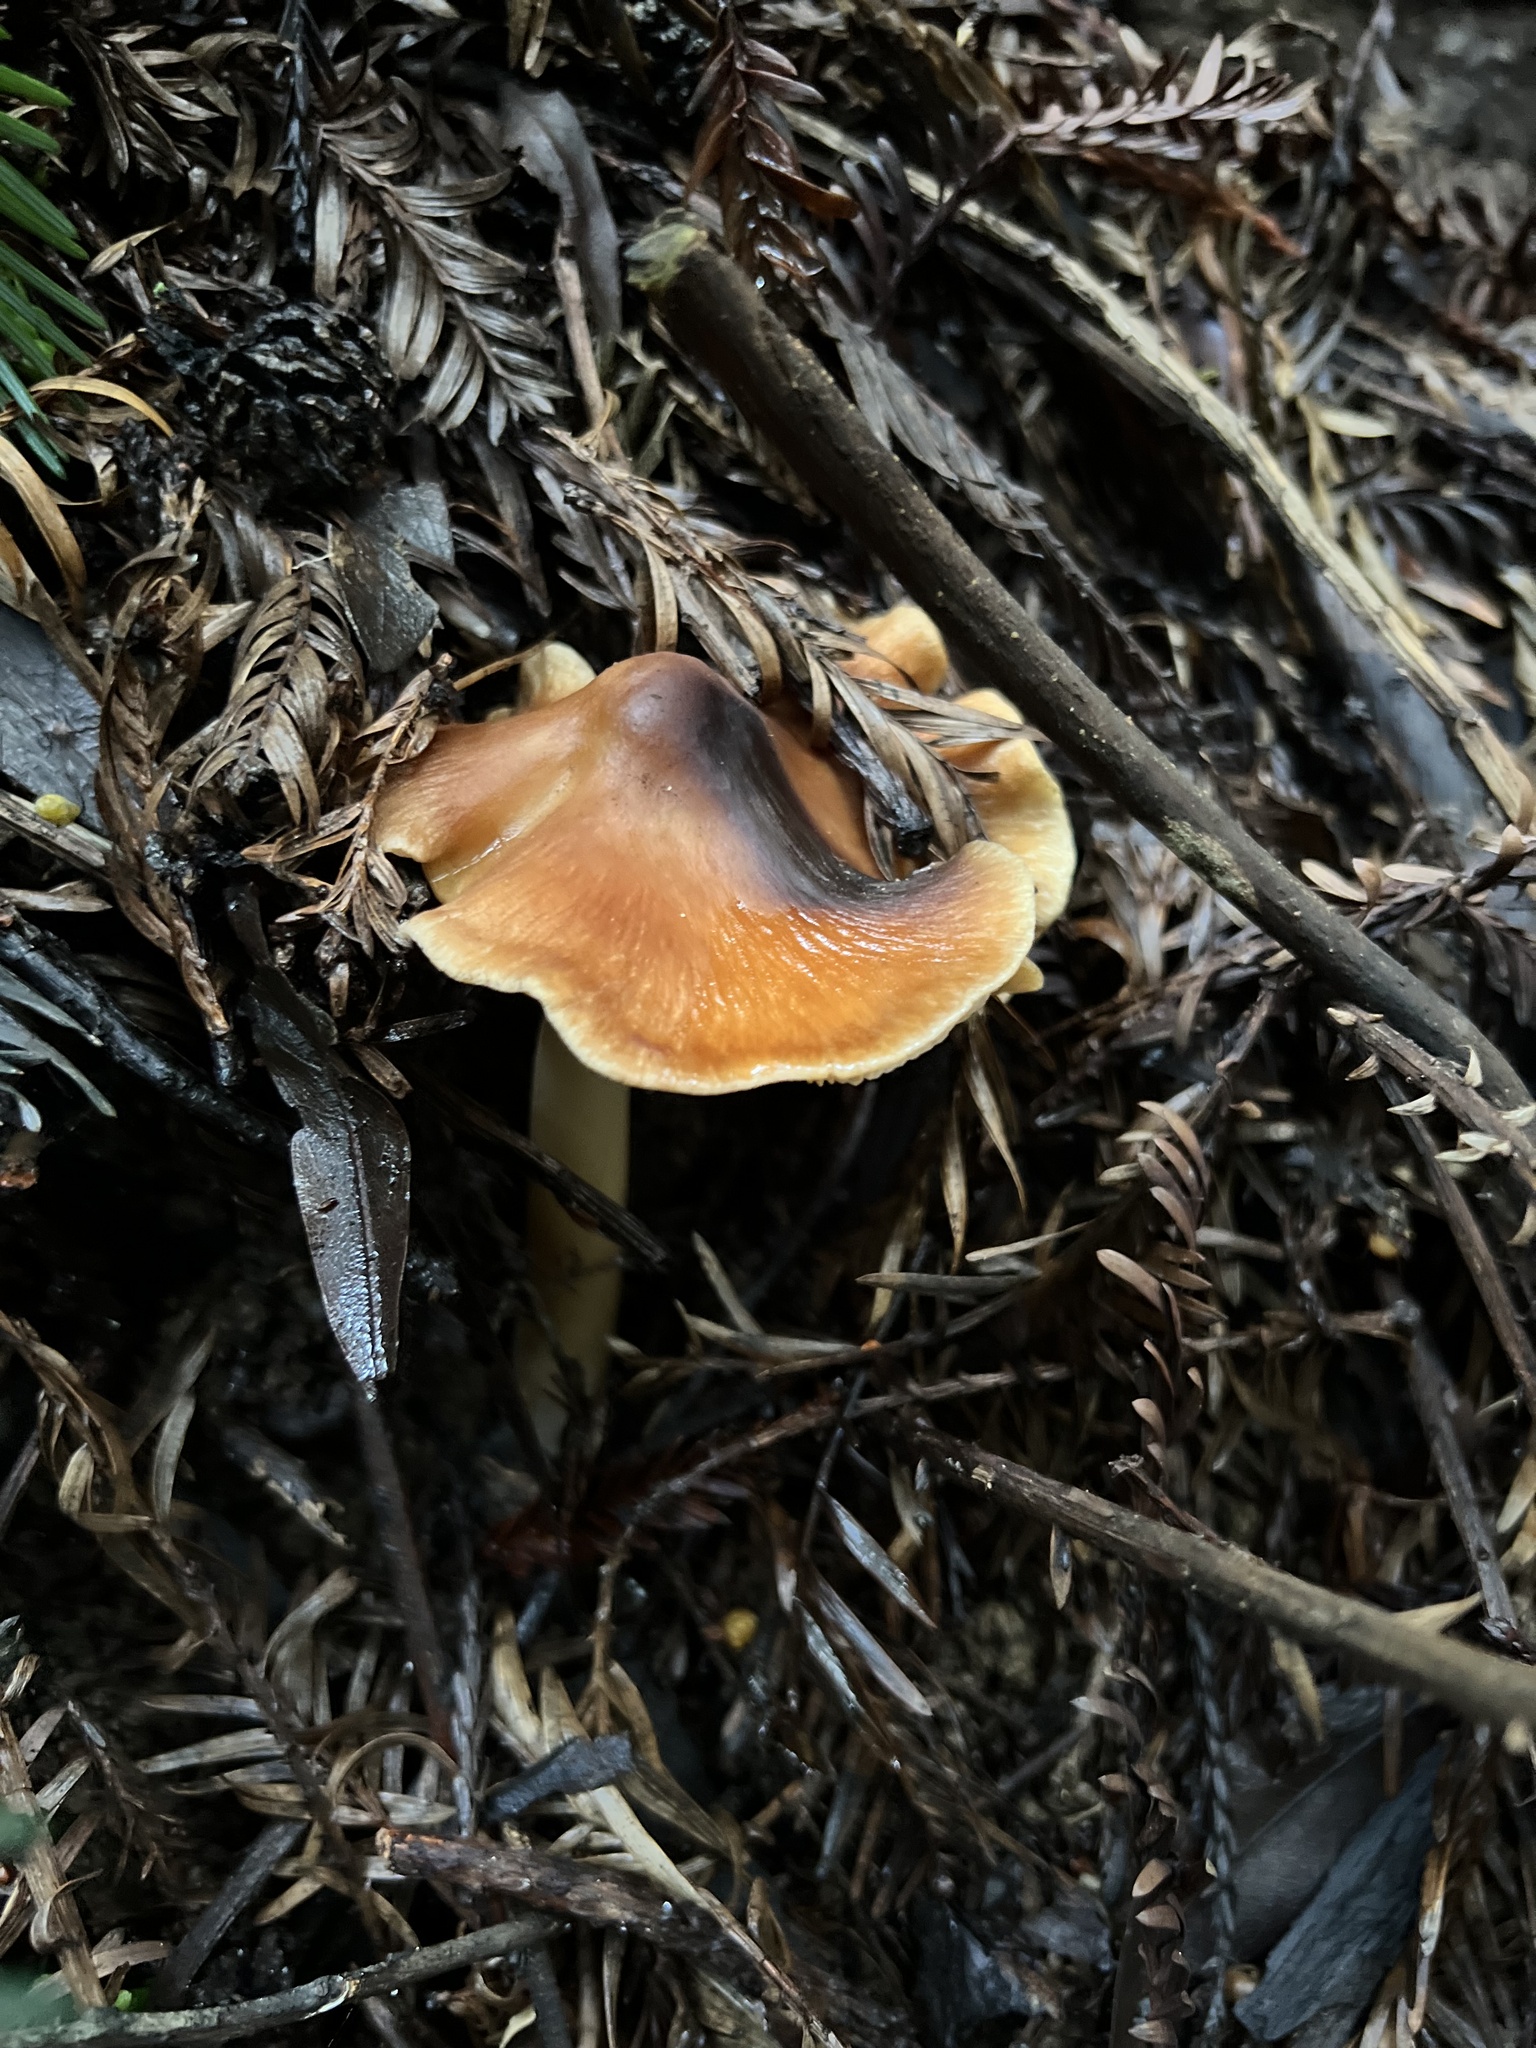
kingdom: Fungi
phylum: Basidiomycota
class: Agaricomycetes
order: Agaricales
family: Tricholomataceae
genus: Caulorhiza
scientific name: Caulorhiza umbonata
